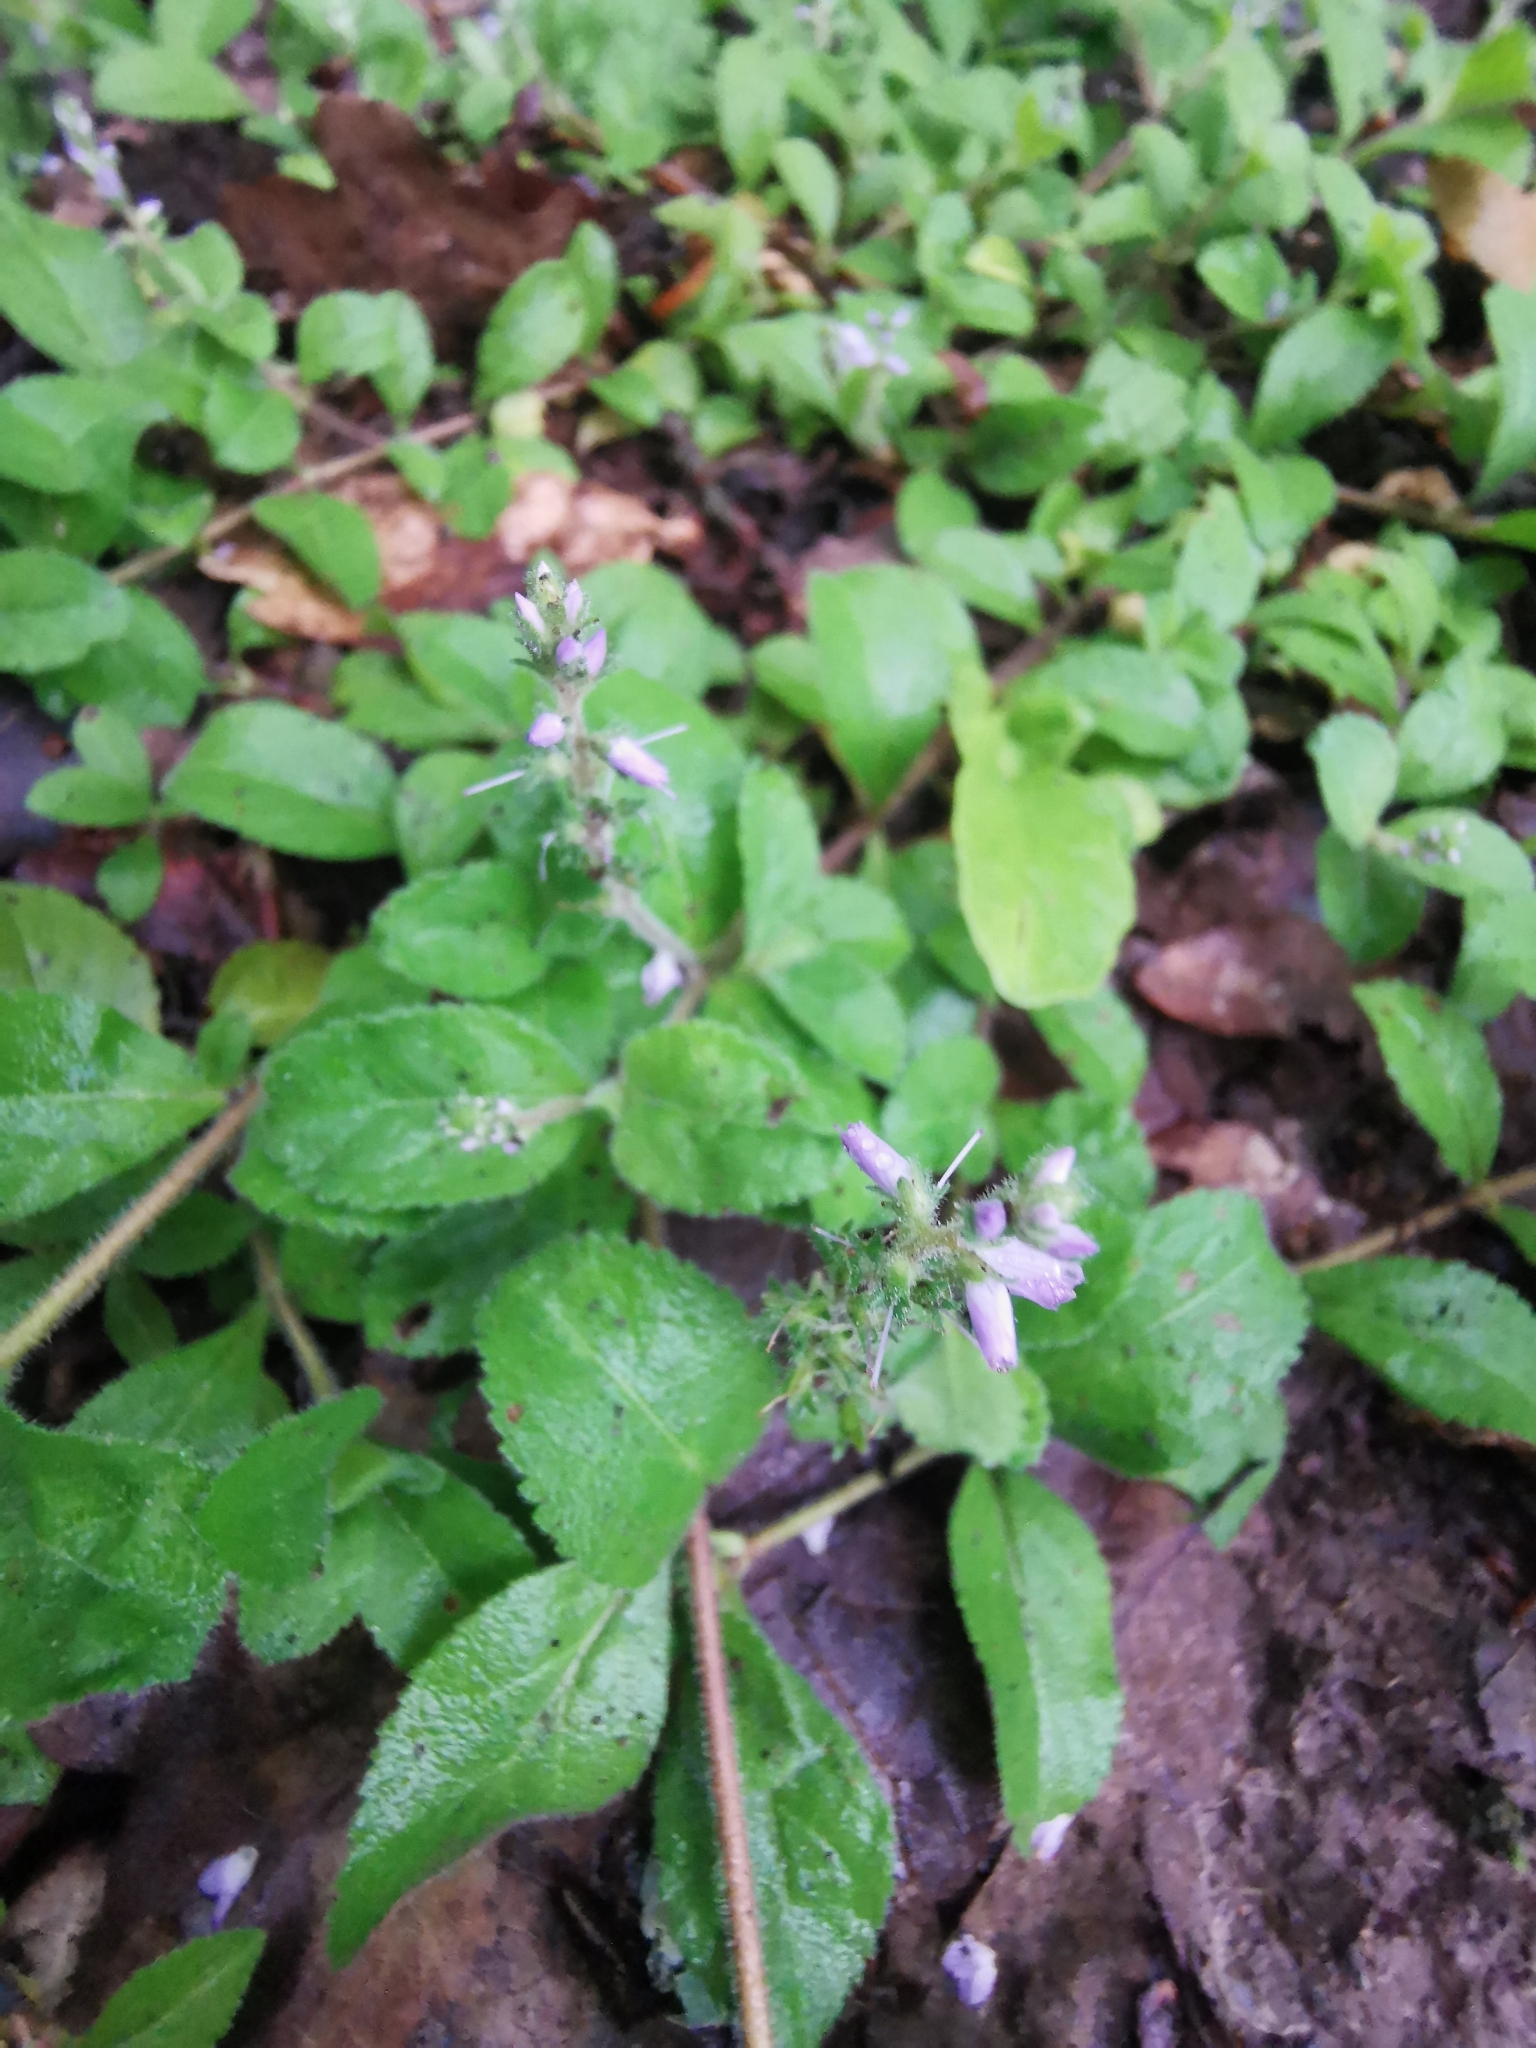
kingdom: Plantae
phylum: Tracheophyta
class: Magnoliopsida
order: Lamiales
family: Plantaginaceae
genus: Veronica
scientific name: Veronica officinalis
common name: Common speedwell
